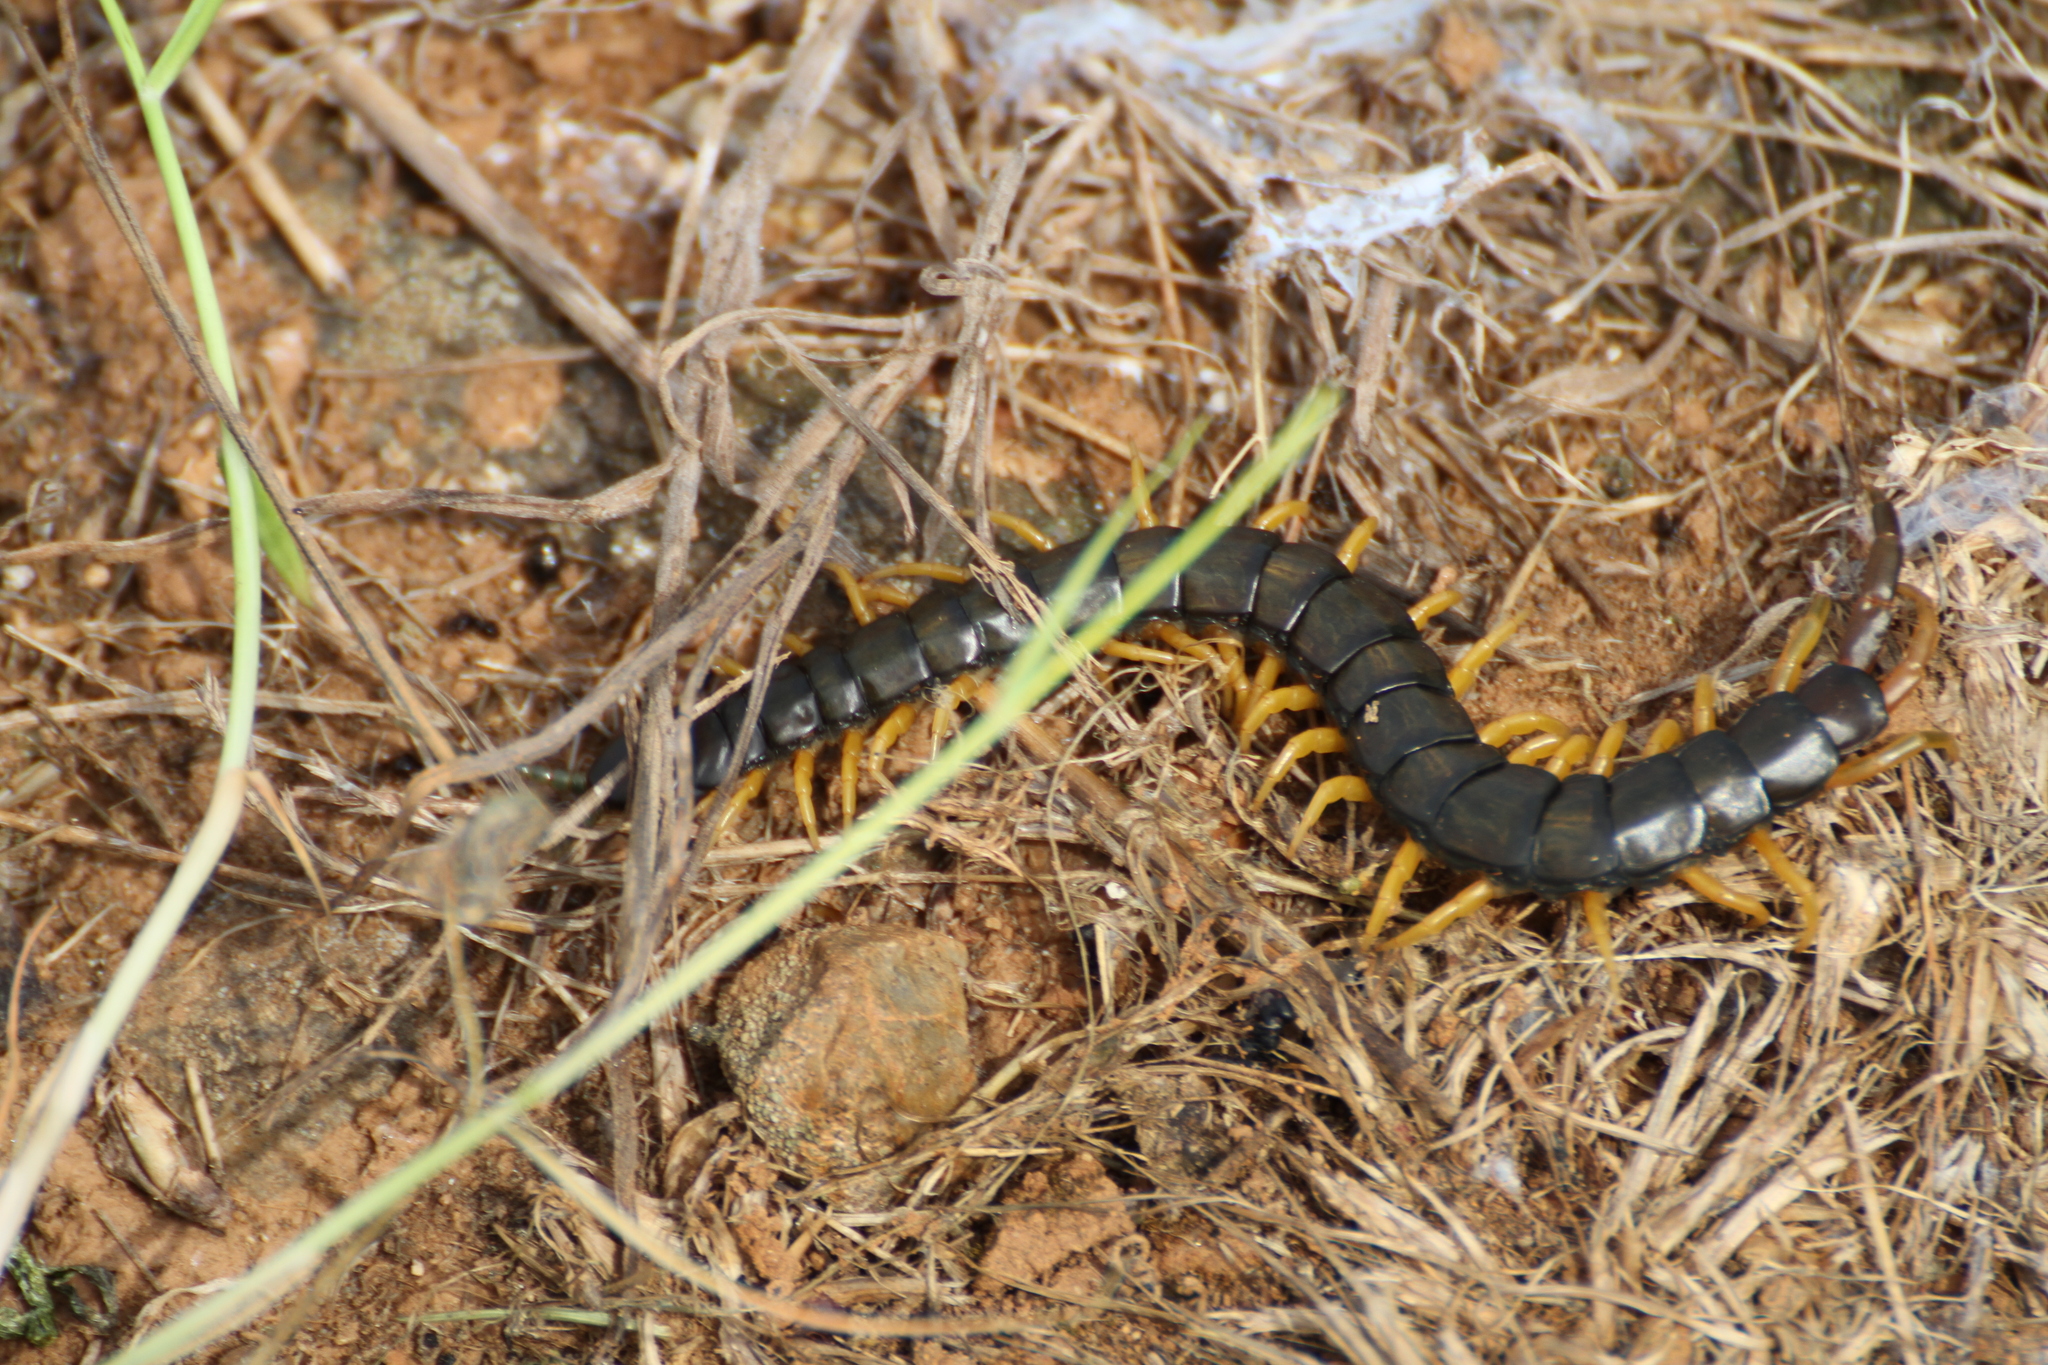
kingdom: Animalia
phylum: Arthropoda
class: Chilopoda
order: Scolopendromorpha
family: Scolopendridae
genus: Scolopendra
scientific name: Scolopendra cingulata
